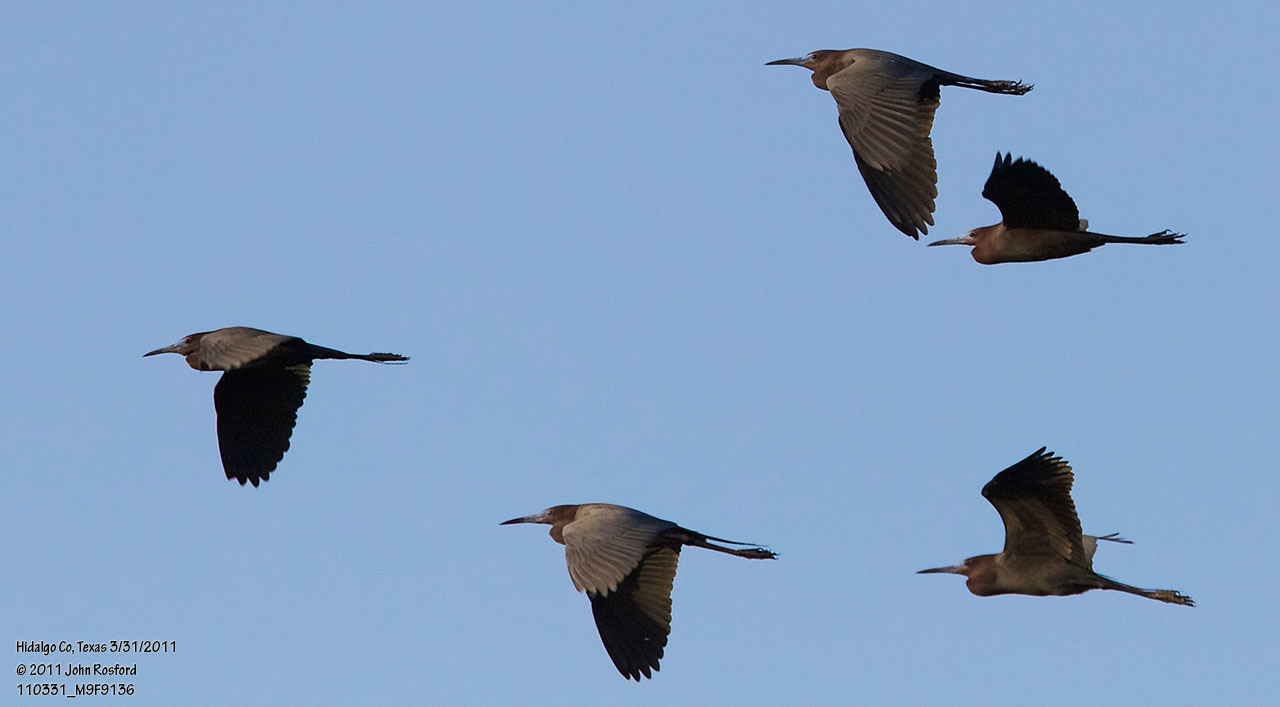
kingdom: Animalia
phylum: Chordata
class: Aves
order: Pelecaniformes
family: Ardeidae
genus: Egretta
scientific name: Egretta caerulea
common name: Little blue heron
